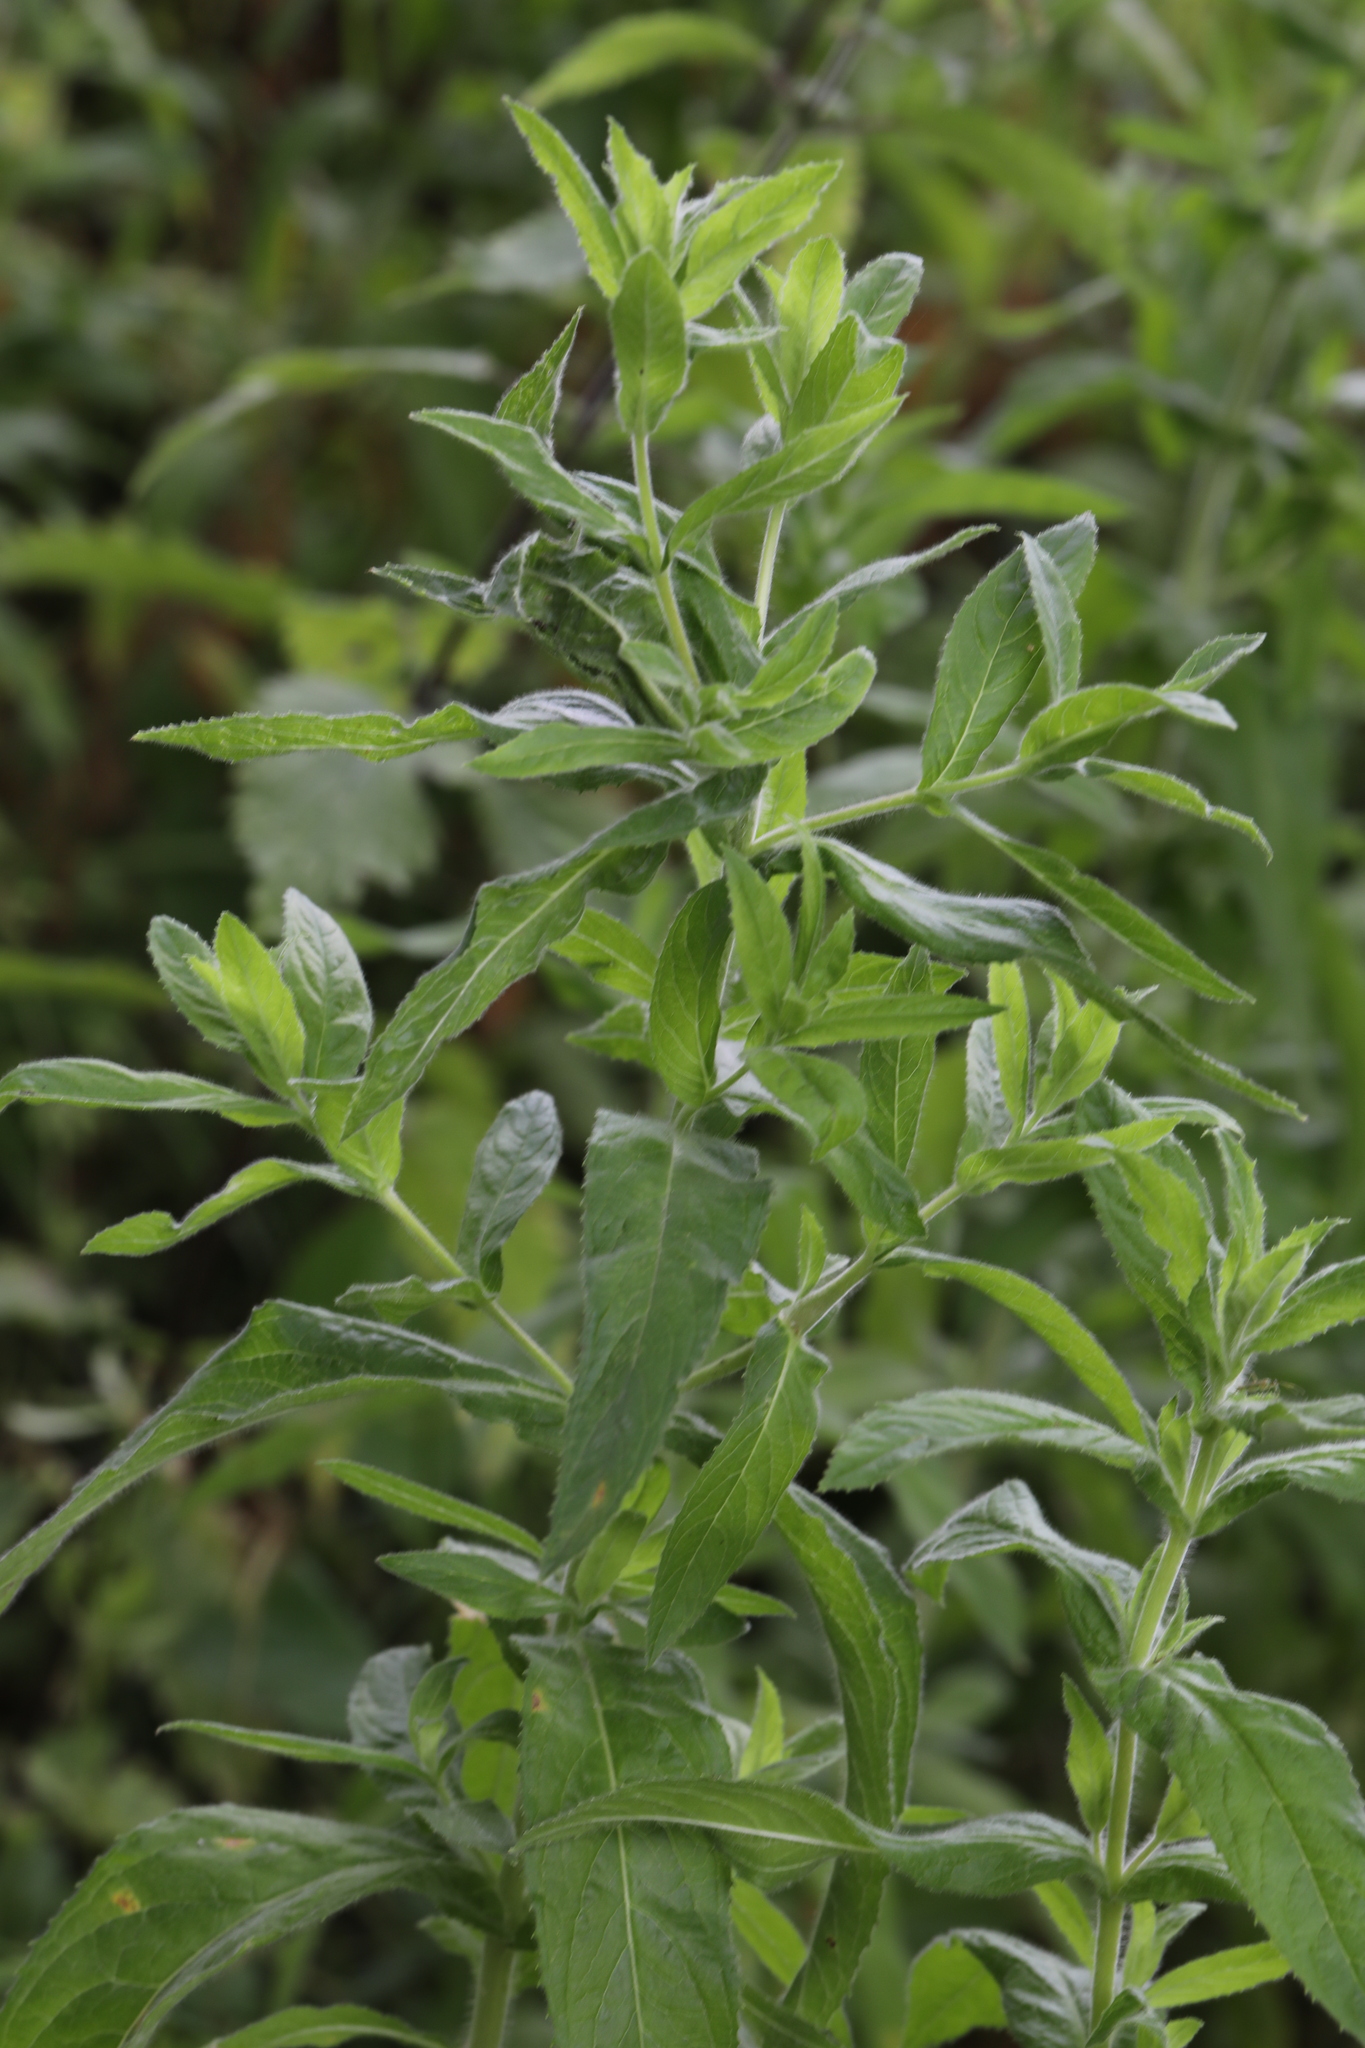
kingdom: Plantae
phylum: Tracheophyta
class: Magnoliopsida
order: Myrtales
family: Onagraceae
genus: Epilobium
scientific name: Epilobium hirsutum
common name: Great willowherb
